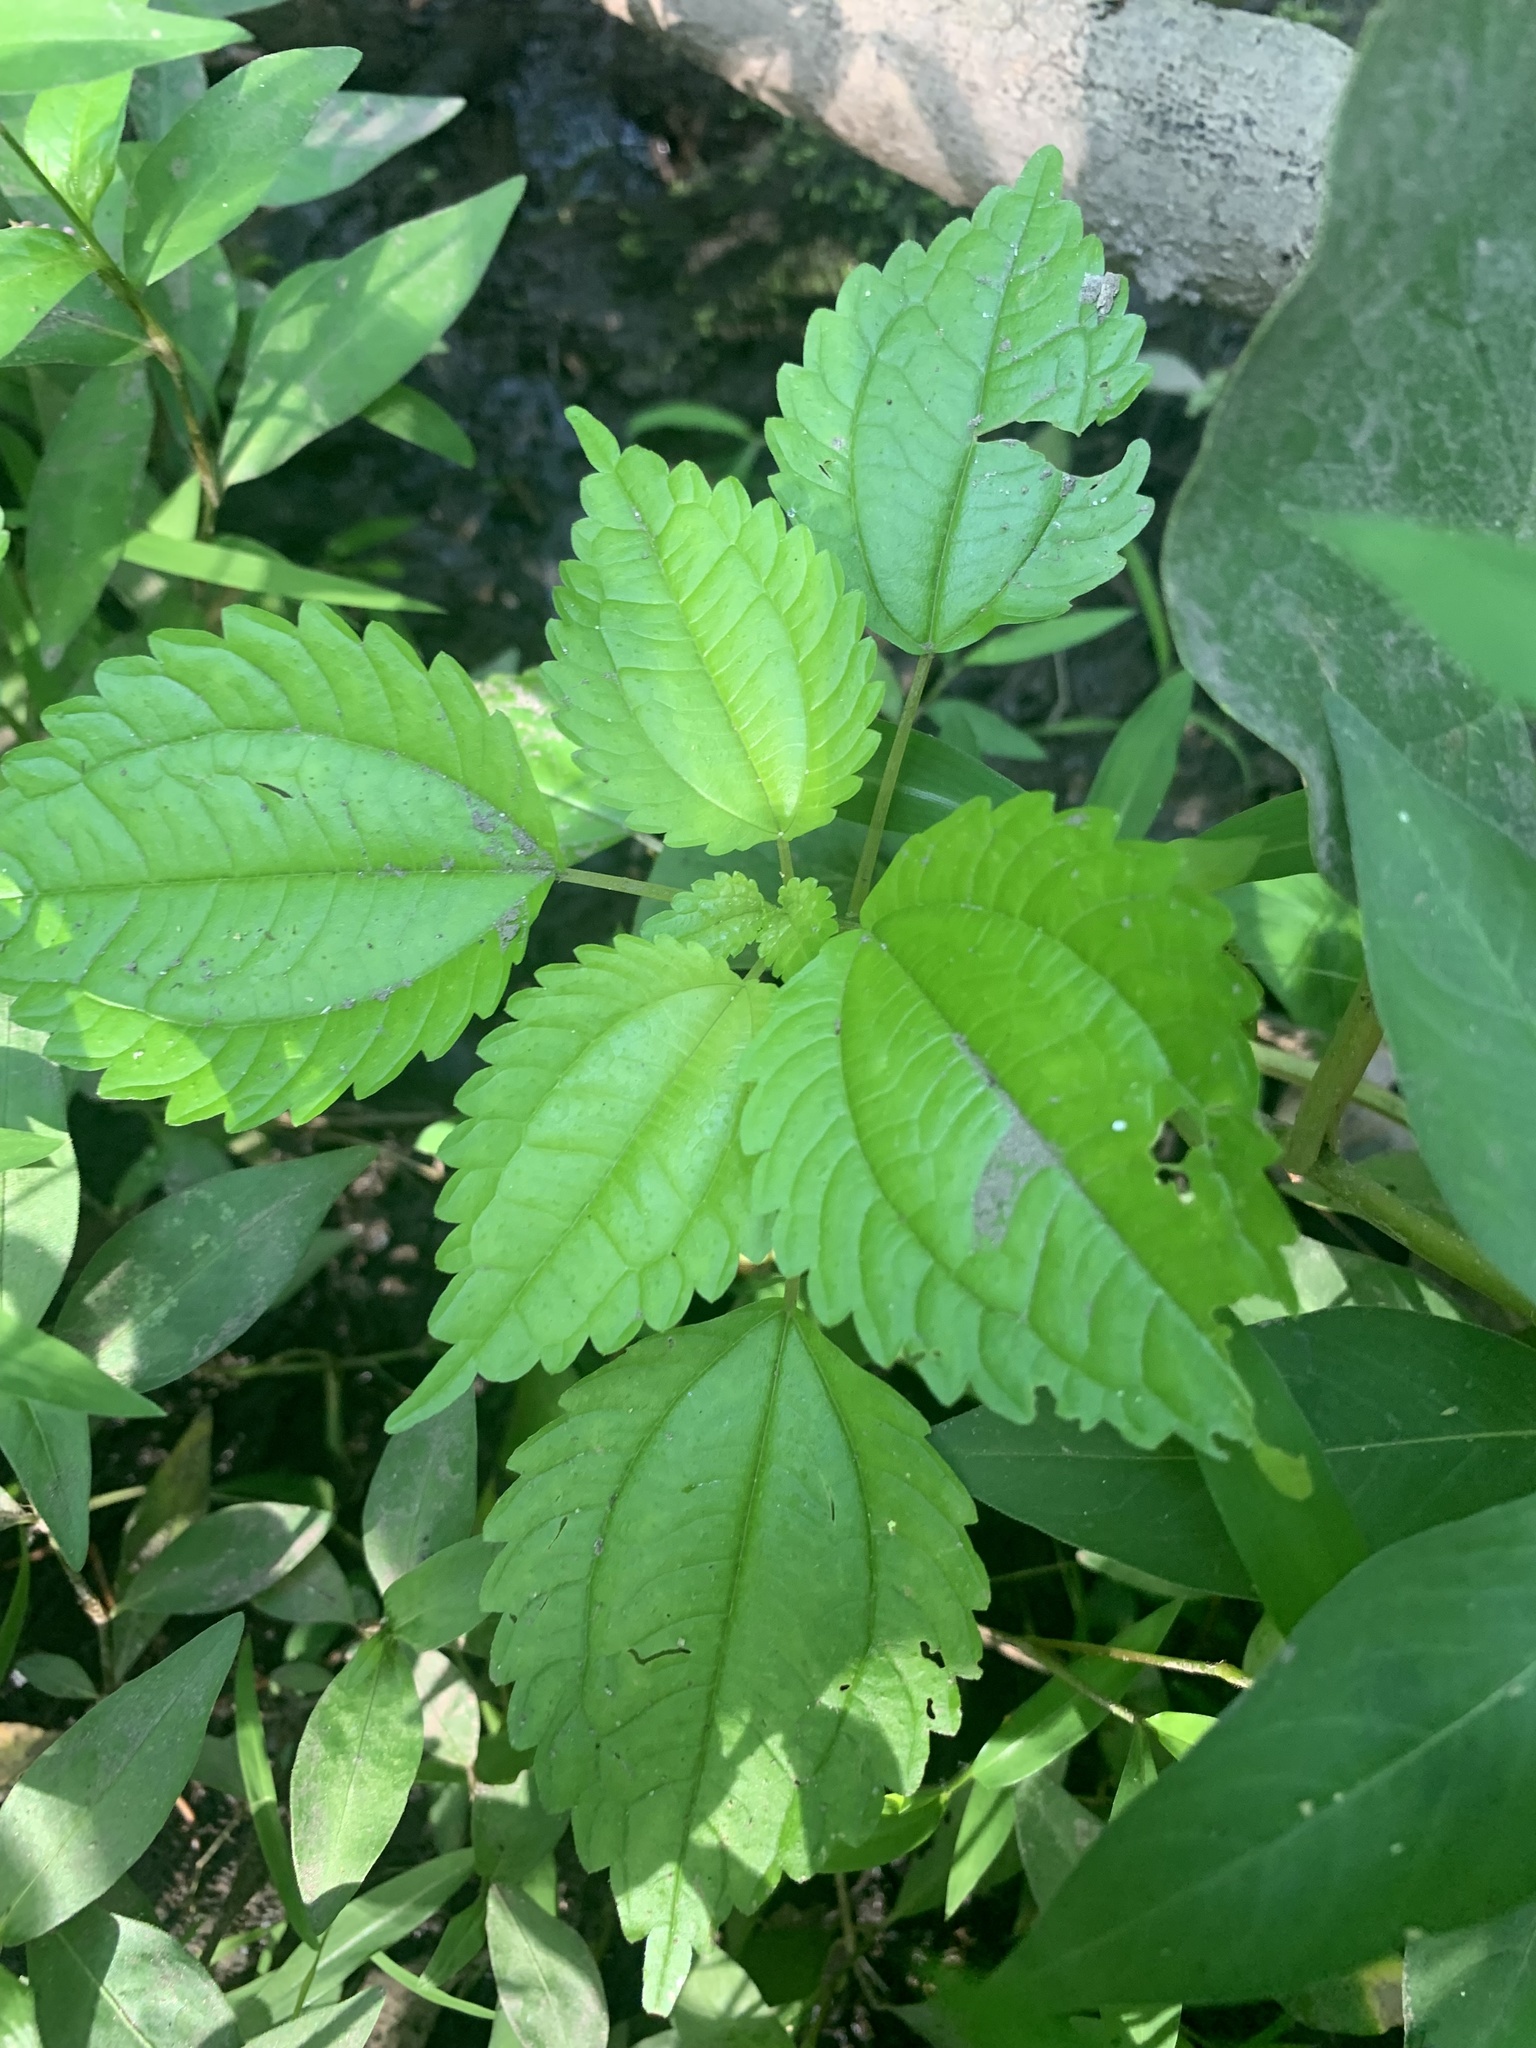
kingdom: Plantae
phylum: Tracheophyta
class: Magnoliopsida
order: Rosales
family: Urticaceae
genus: Pilea
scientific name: Pilea pumila
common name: Clearweed
